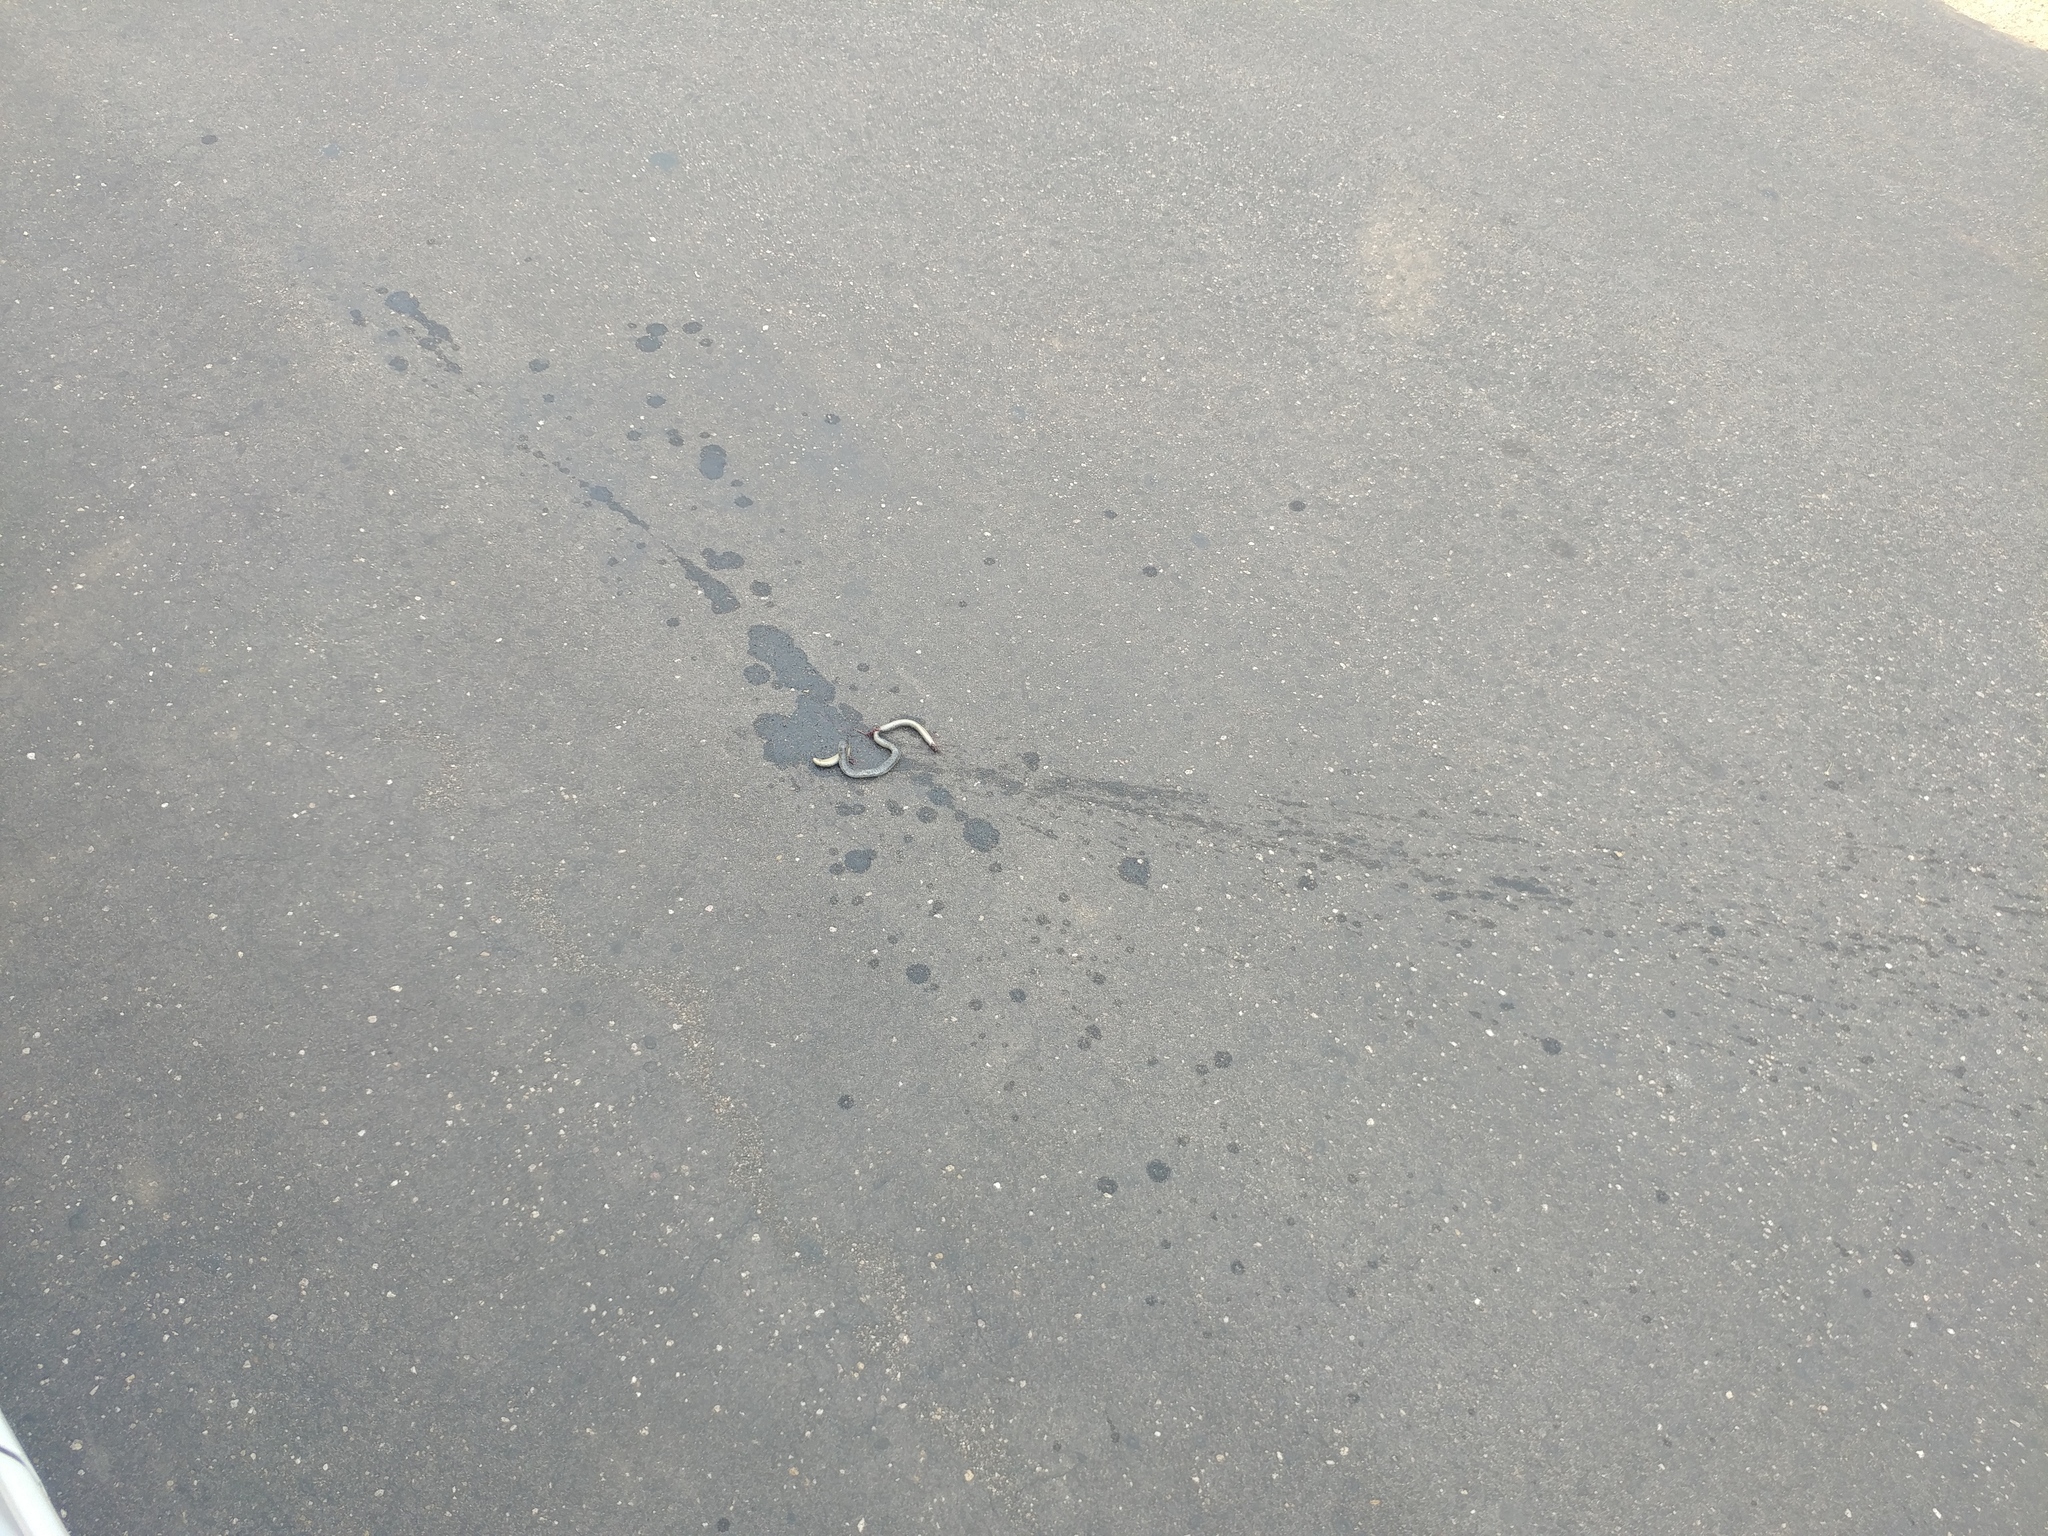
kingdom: Animalia
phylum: Chordata
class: Squamata
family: Typhlopidae
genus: Afrotyphlops
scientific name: Afrotyphlops schlegelii
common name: Schlegel's giant blind snake
